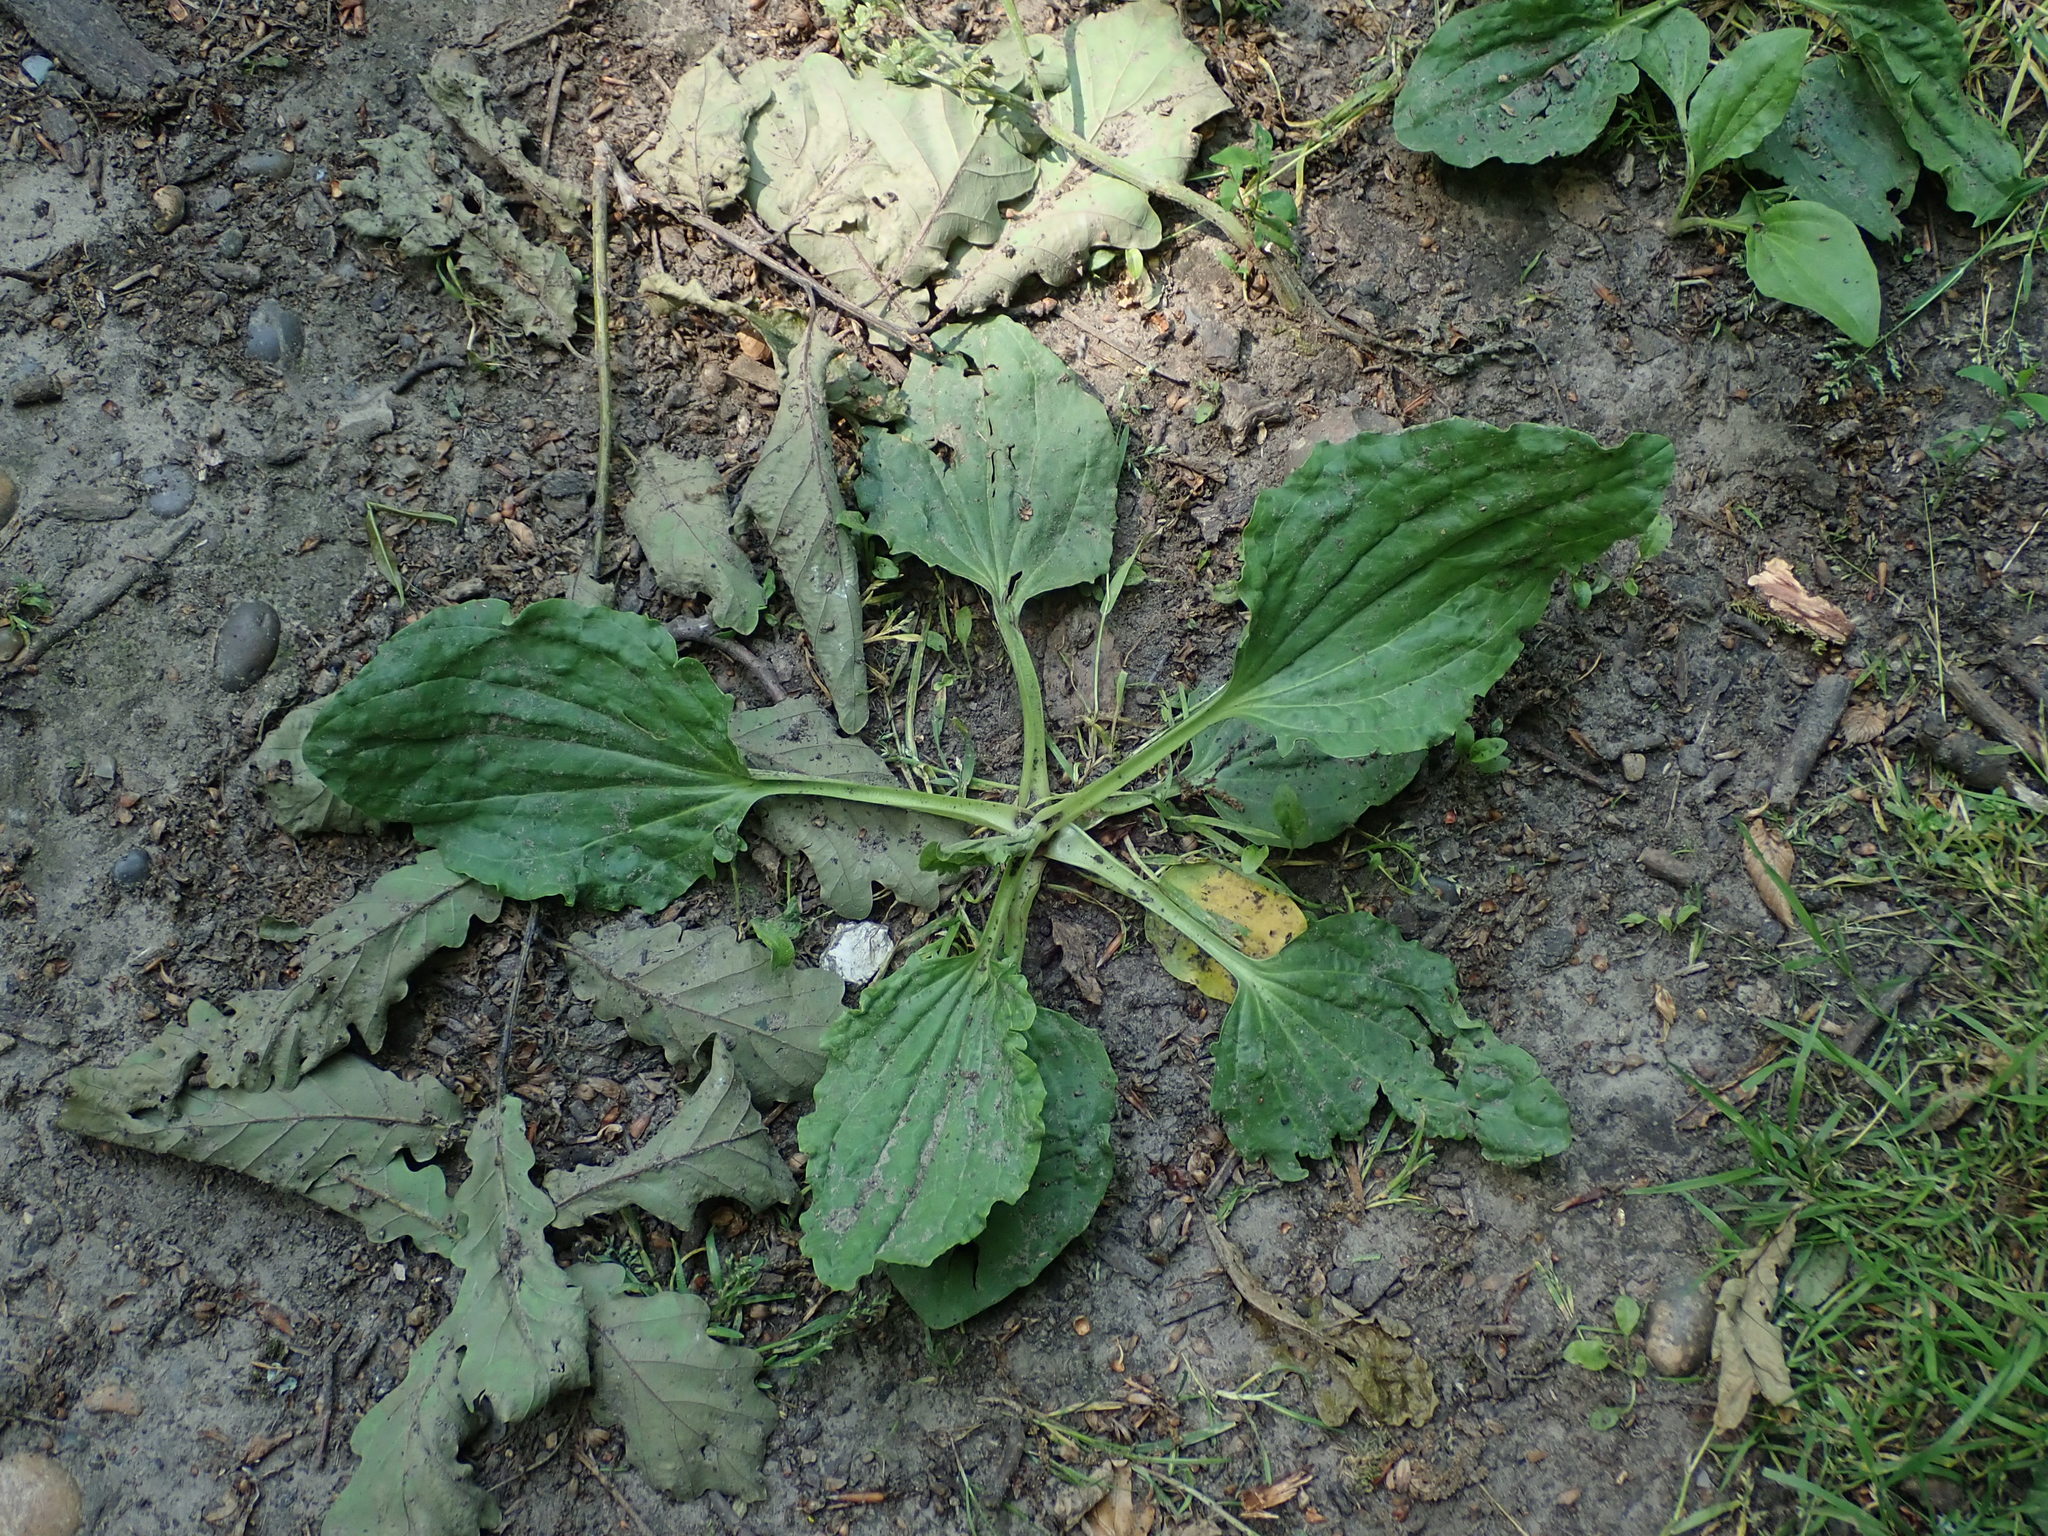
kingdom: Plantae
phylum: Tracheophyta
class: Magnoliopsida
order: Lamiales
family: Plantaginaceae
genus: Plantago
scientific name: Plantago major
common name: Common plantain
